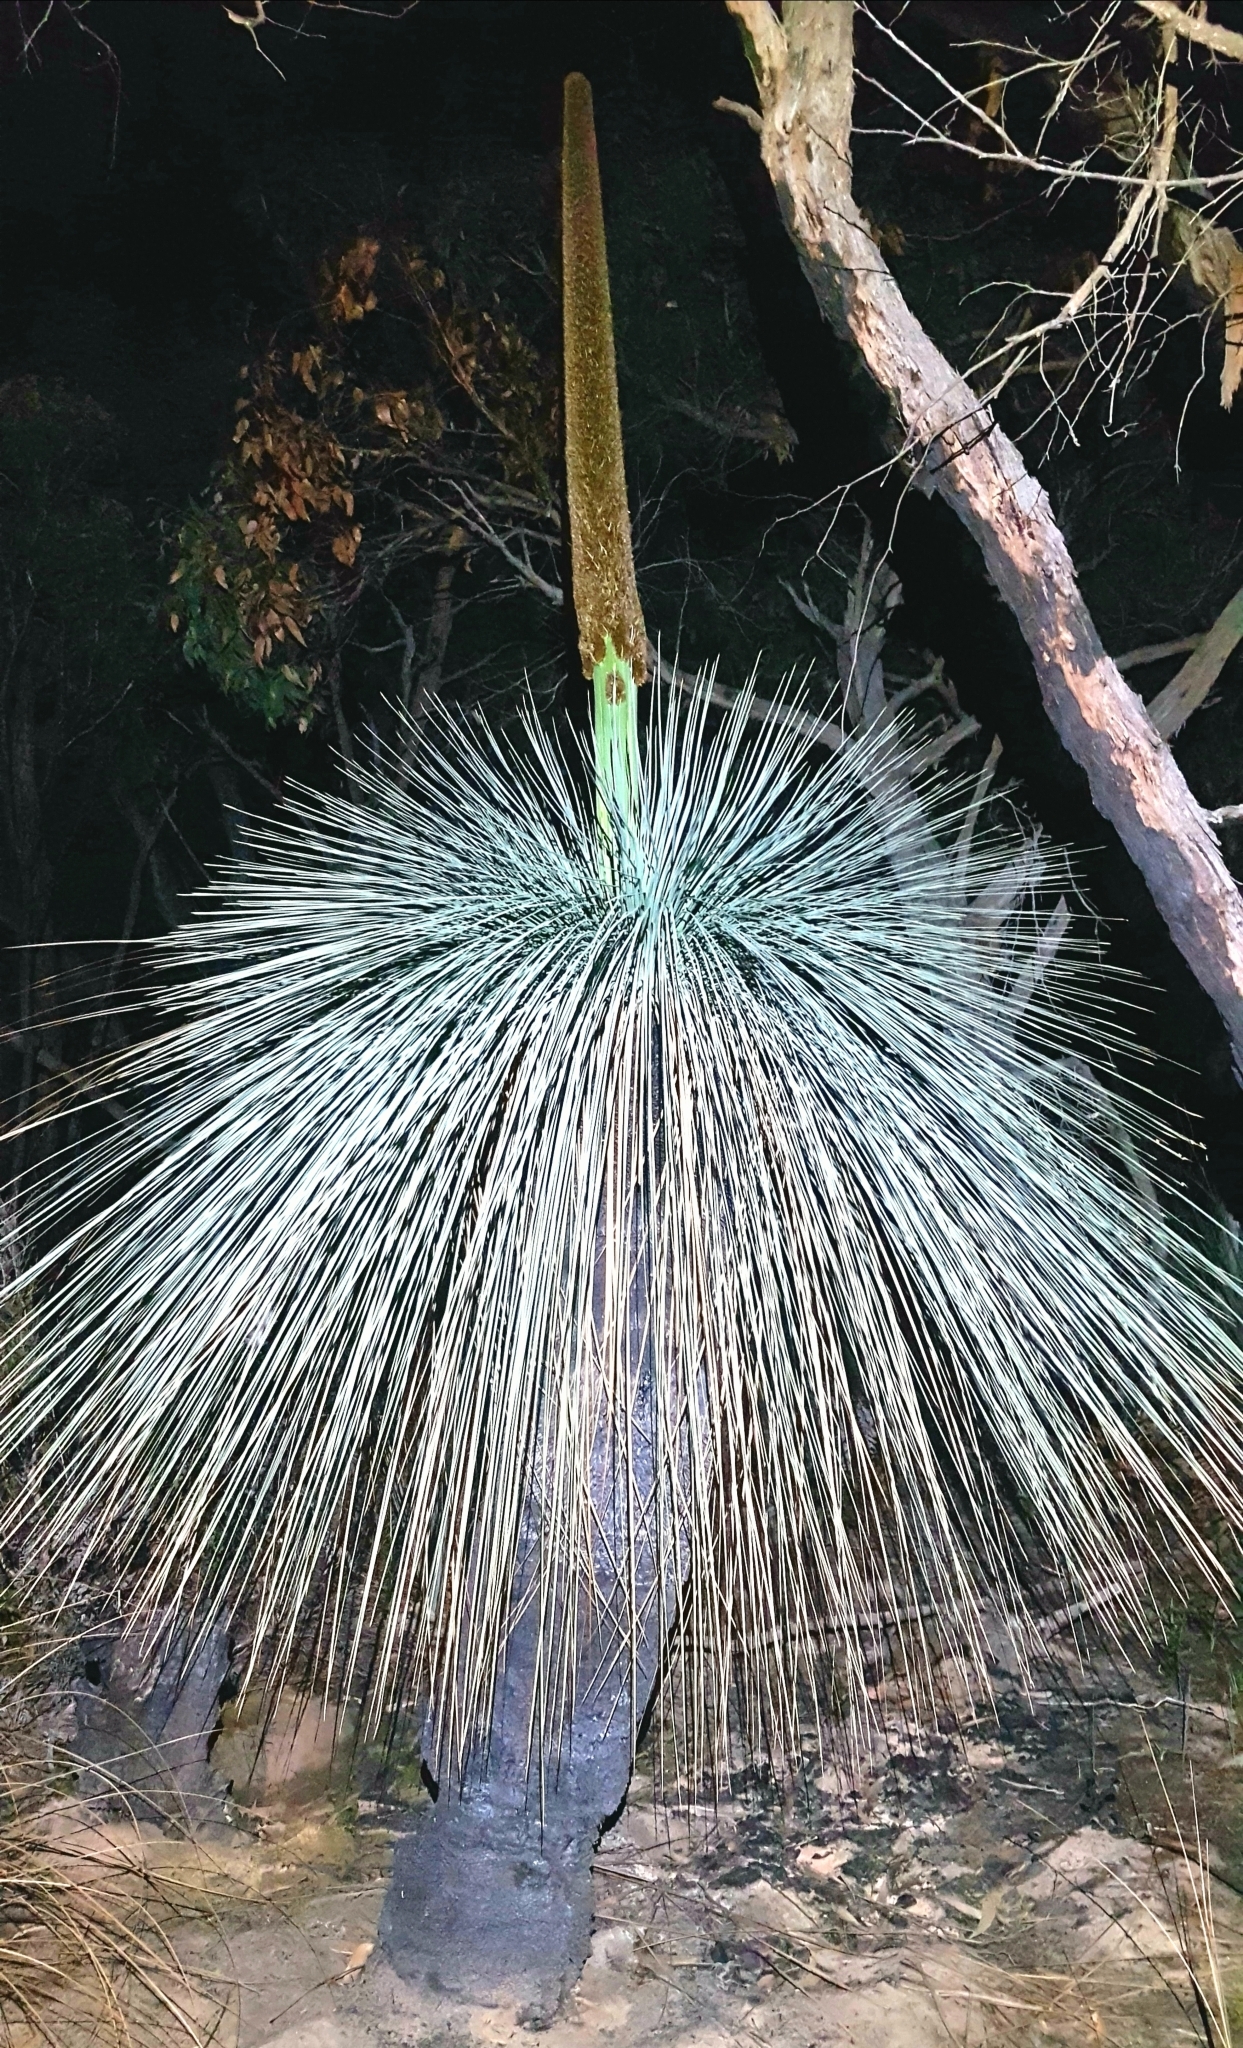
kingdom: Plantae
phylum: Tracheophyta
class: Liliopsida
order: Asparagales
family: Asphodelaceae
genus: Xanthorrhoea
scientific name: Xanthorrhoea australis
